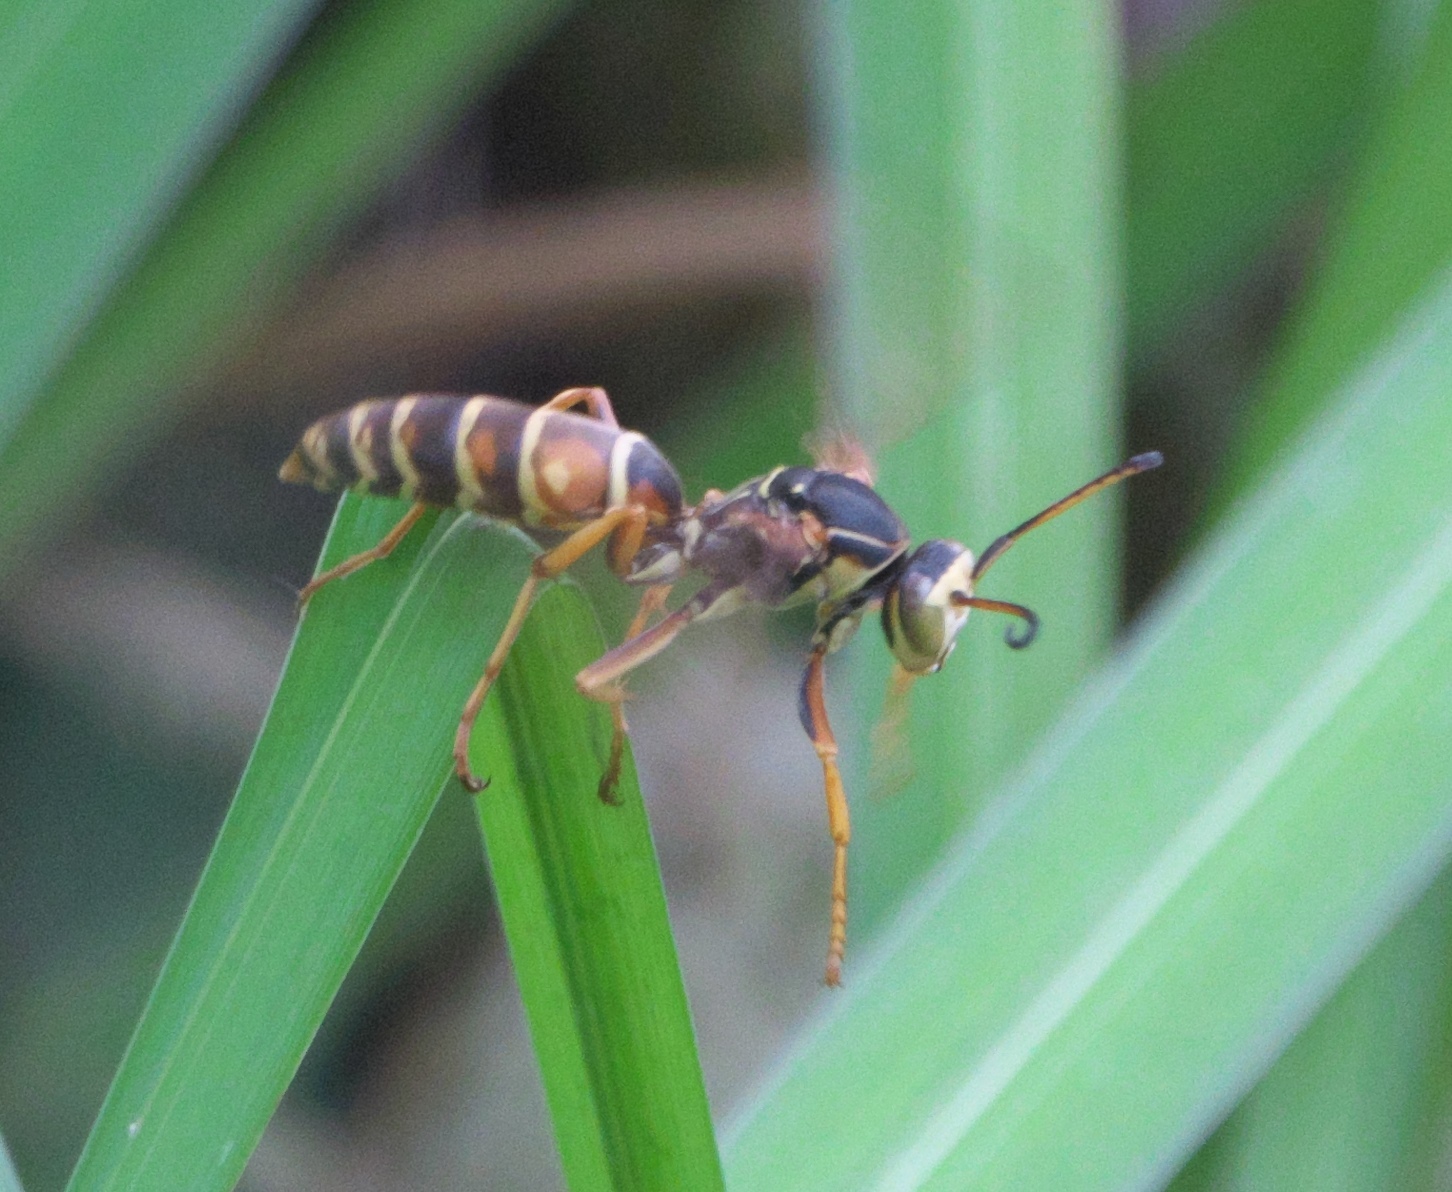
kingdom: Animalia
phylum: Arthropoda
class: Insecta
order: Hymenoptera
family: Eumenidae
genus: Polistes
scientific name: Polistes fuscatus
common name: Dark paper wasp
